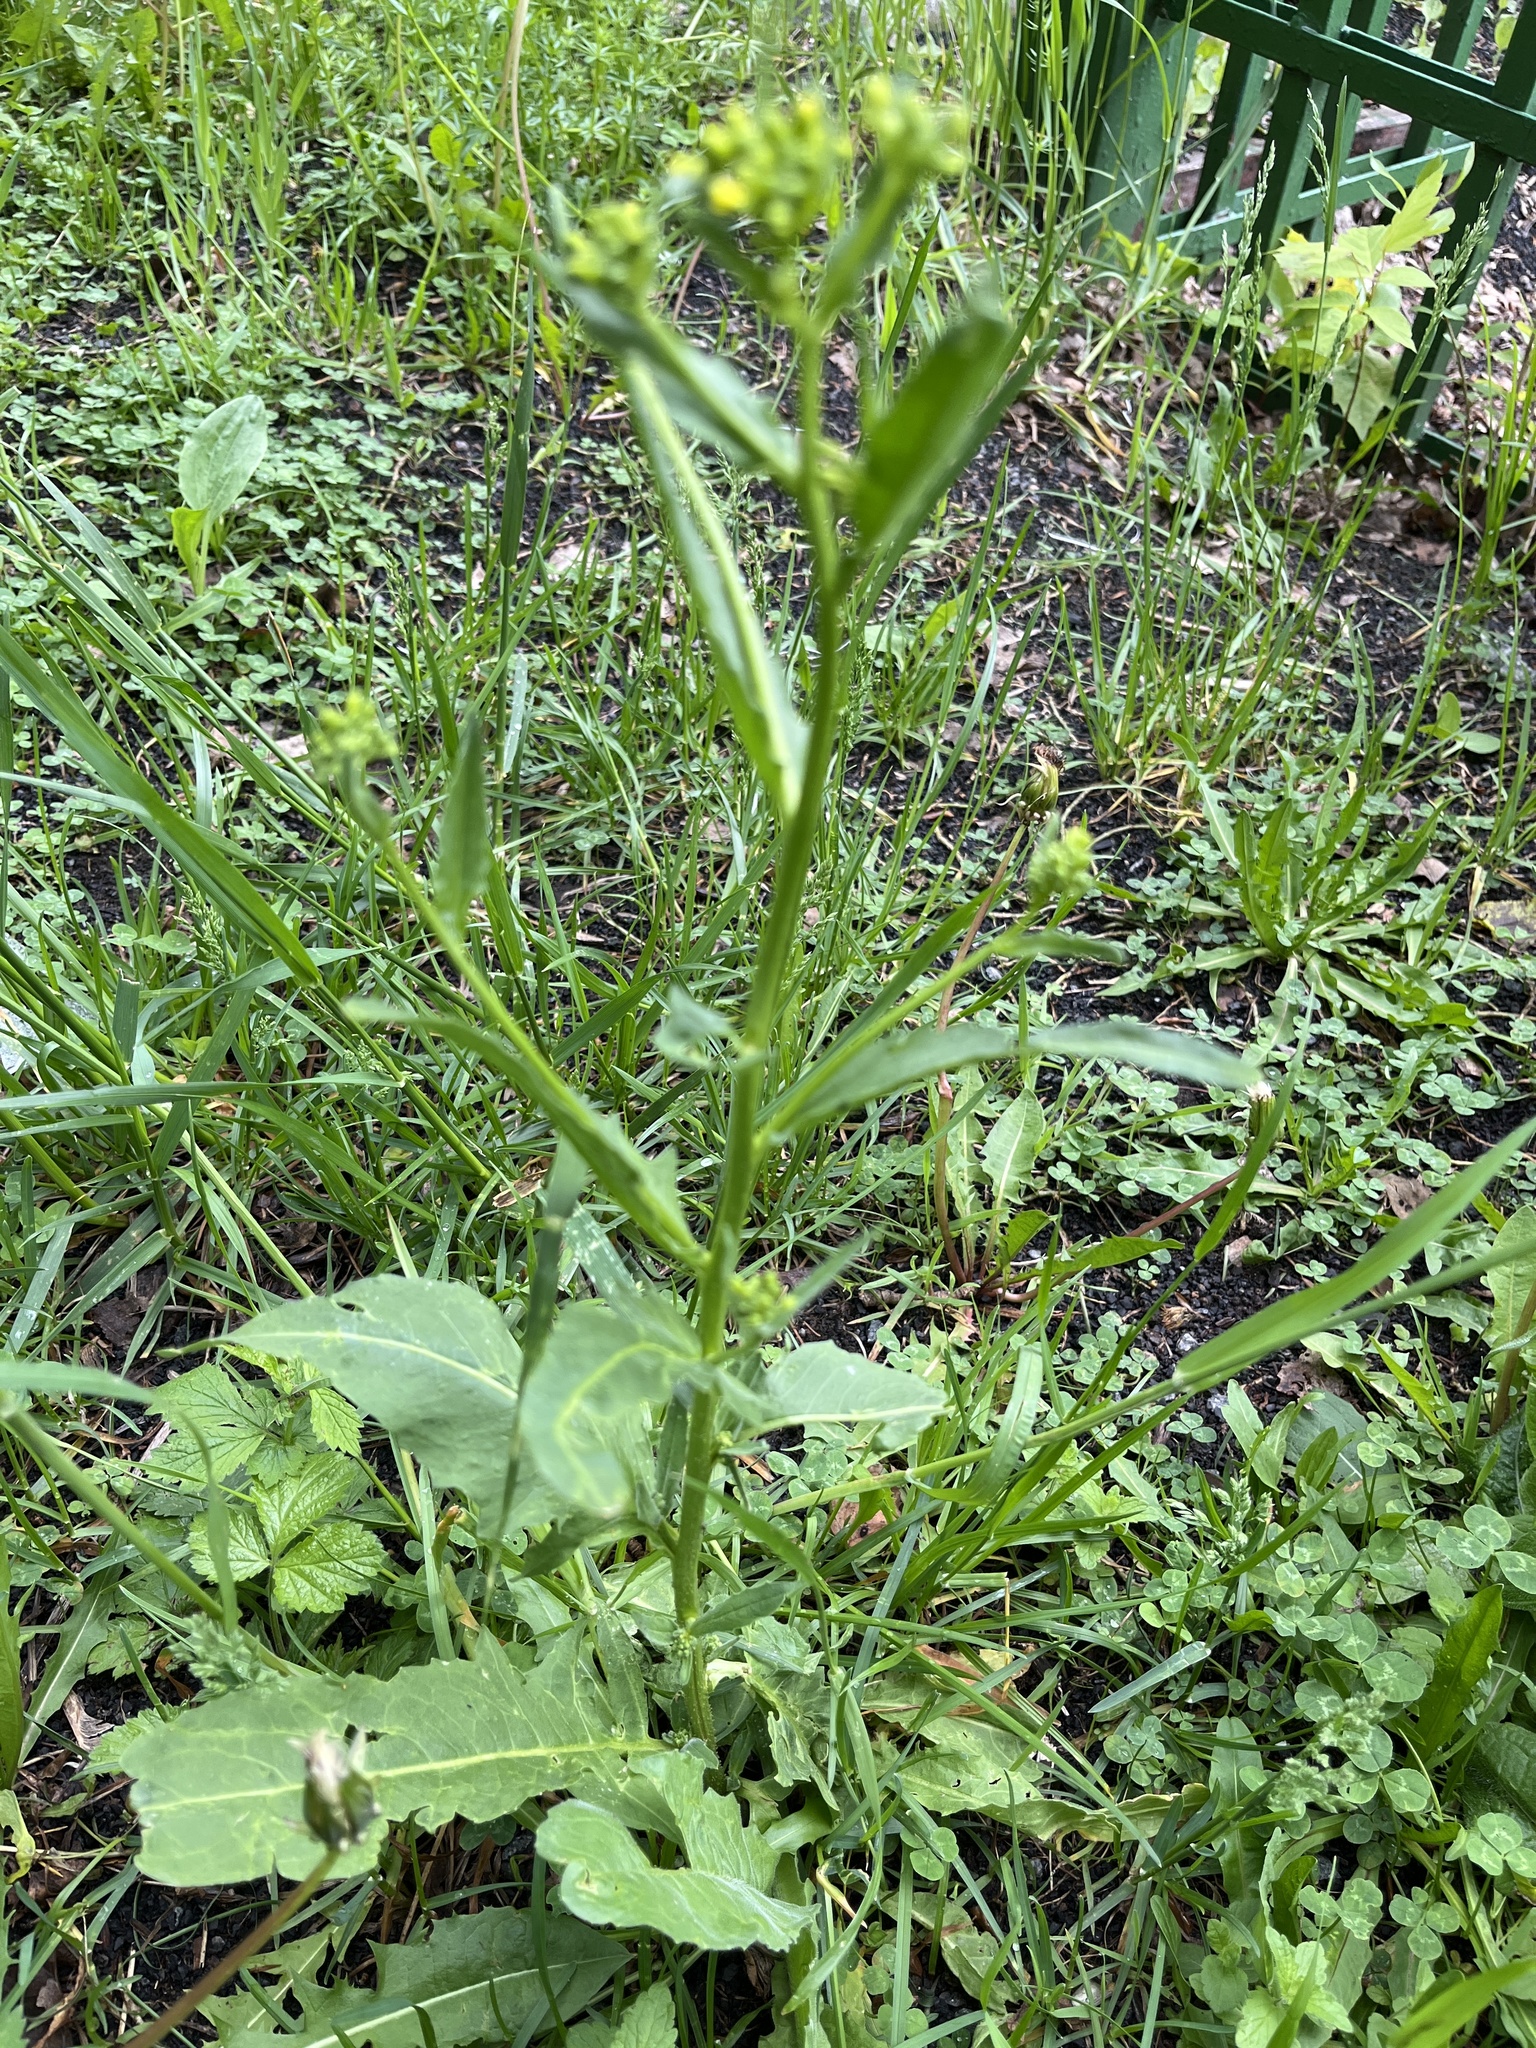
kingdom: Plantae
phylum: Tracheophyta
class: Magnoliopsida
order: Brassicales
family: Brassicaceae
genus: Bunias
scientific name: Bunias orientalis
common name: Warty-cabbage
